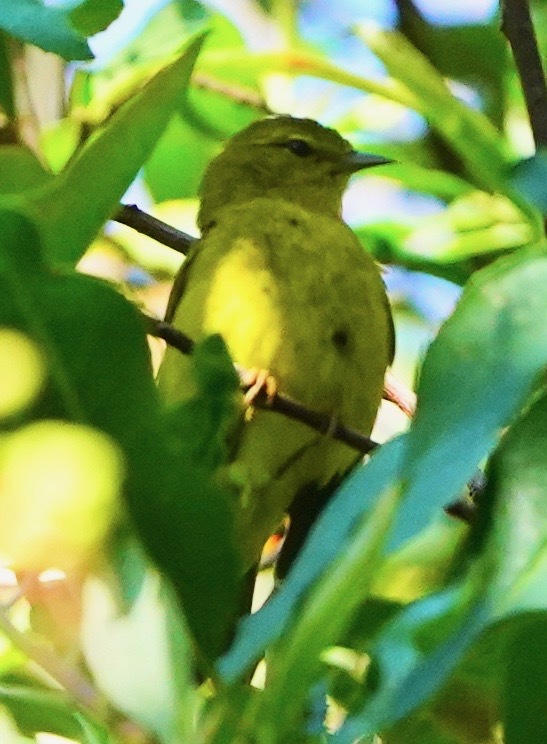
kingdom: Animalia
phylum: Chordata
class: Aves
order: Passeriformes
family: Parulidae
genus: Leiothlypis
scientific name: Leiothlypis celata
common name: Orange-crowned warbler
